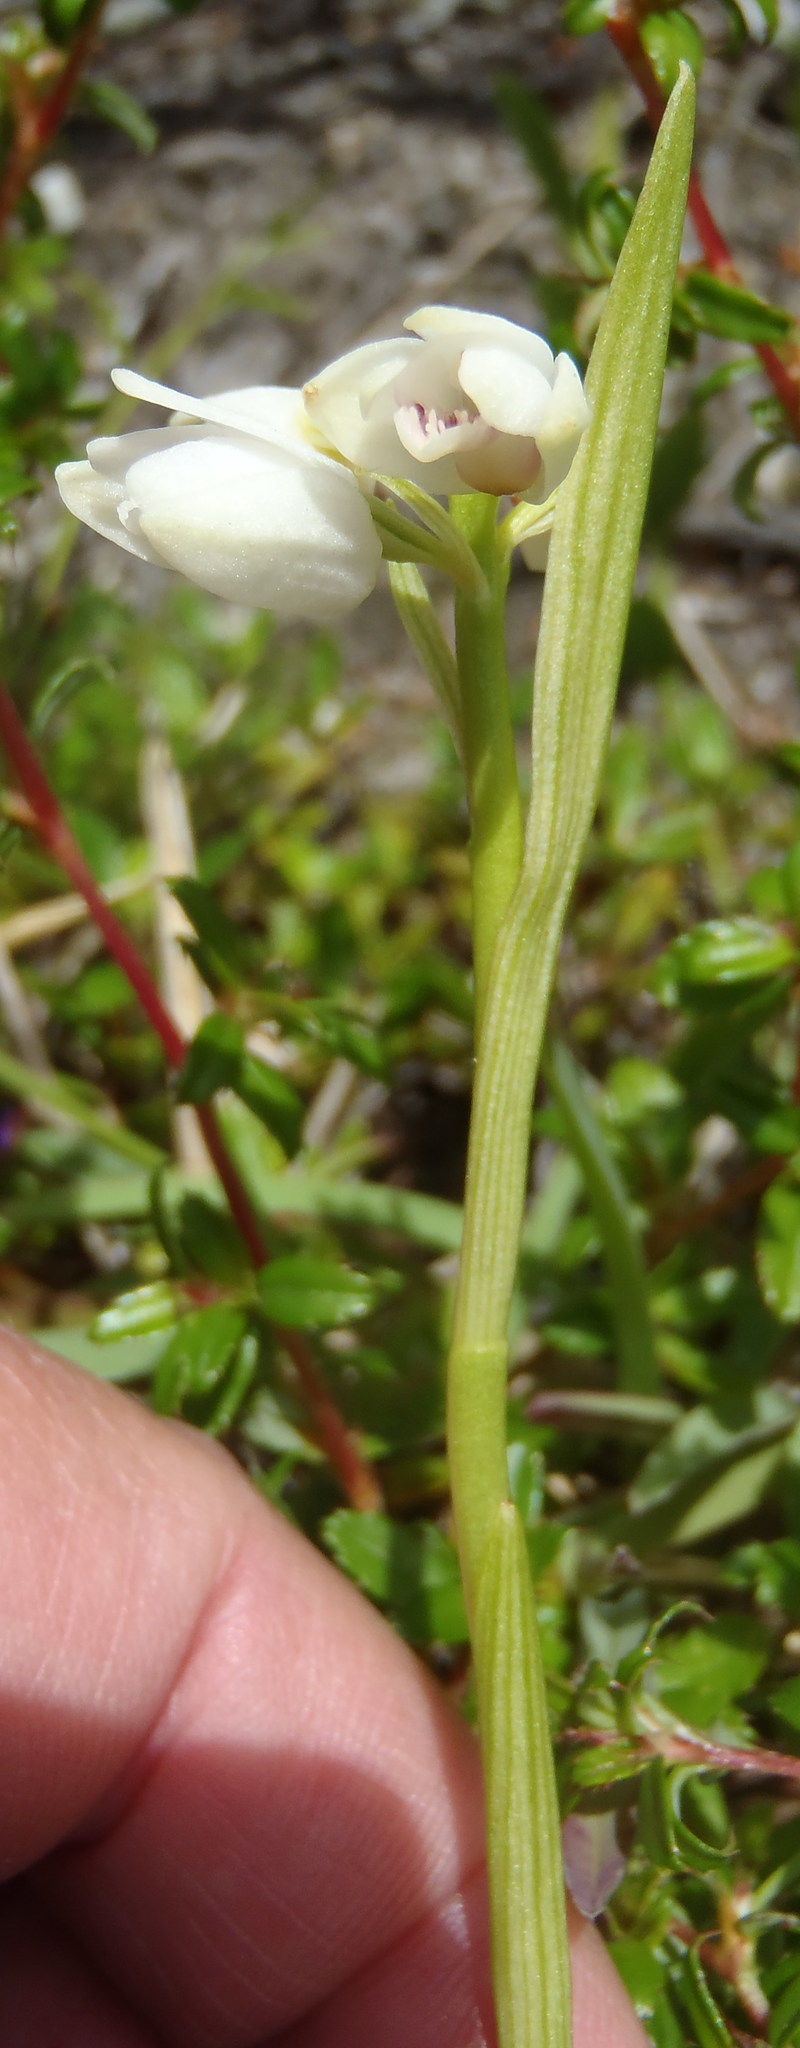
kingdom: Plantae
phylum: Tracheophyta
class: Liliopsida
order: Asparagales
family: Orchidaceae
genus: Eulophia
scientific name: Eulophia aculeata
